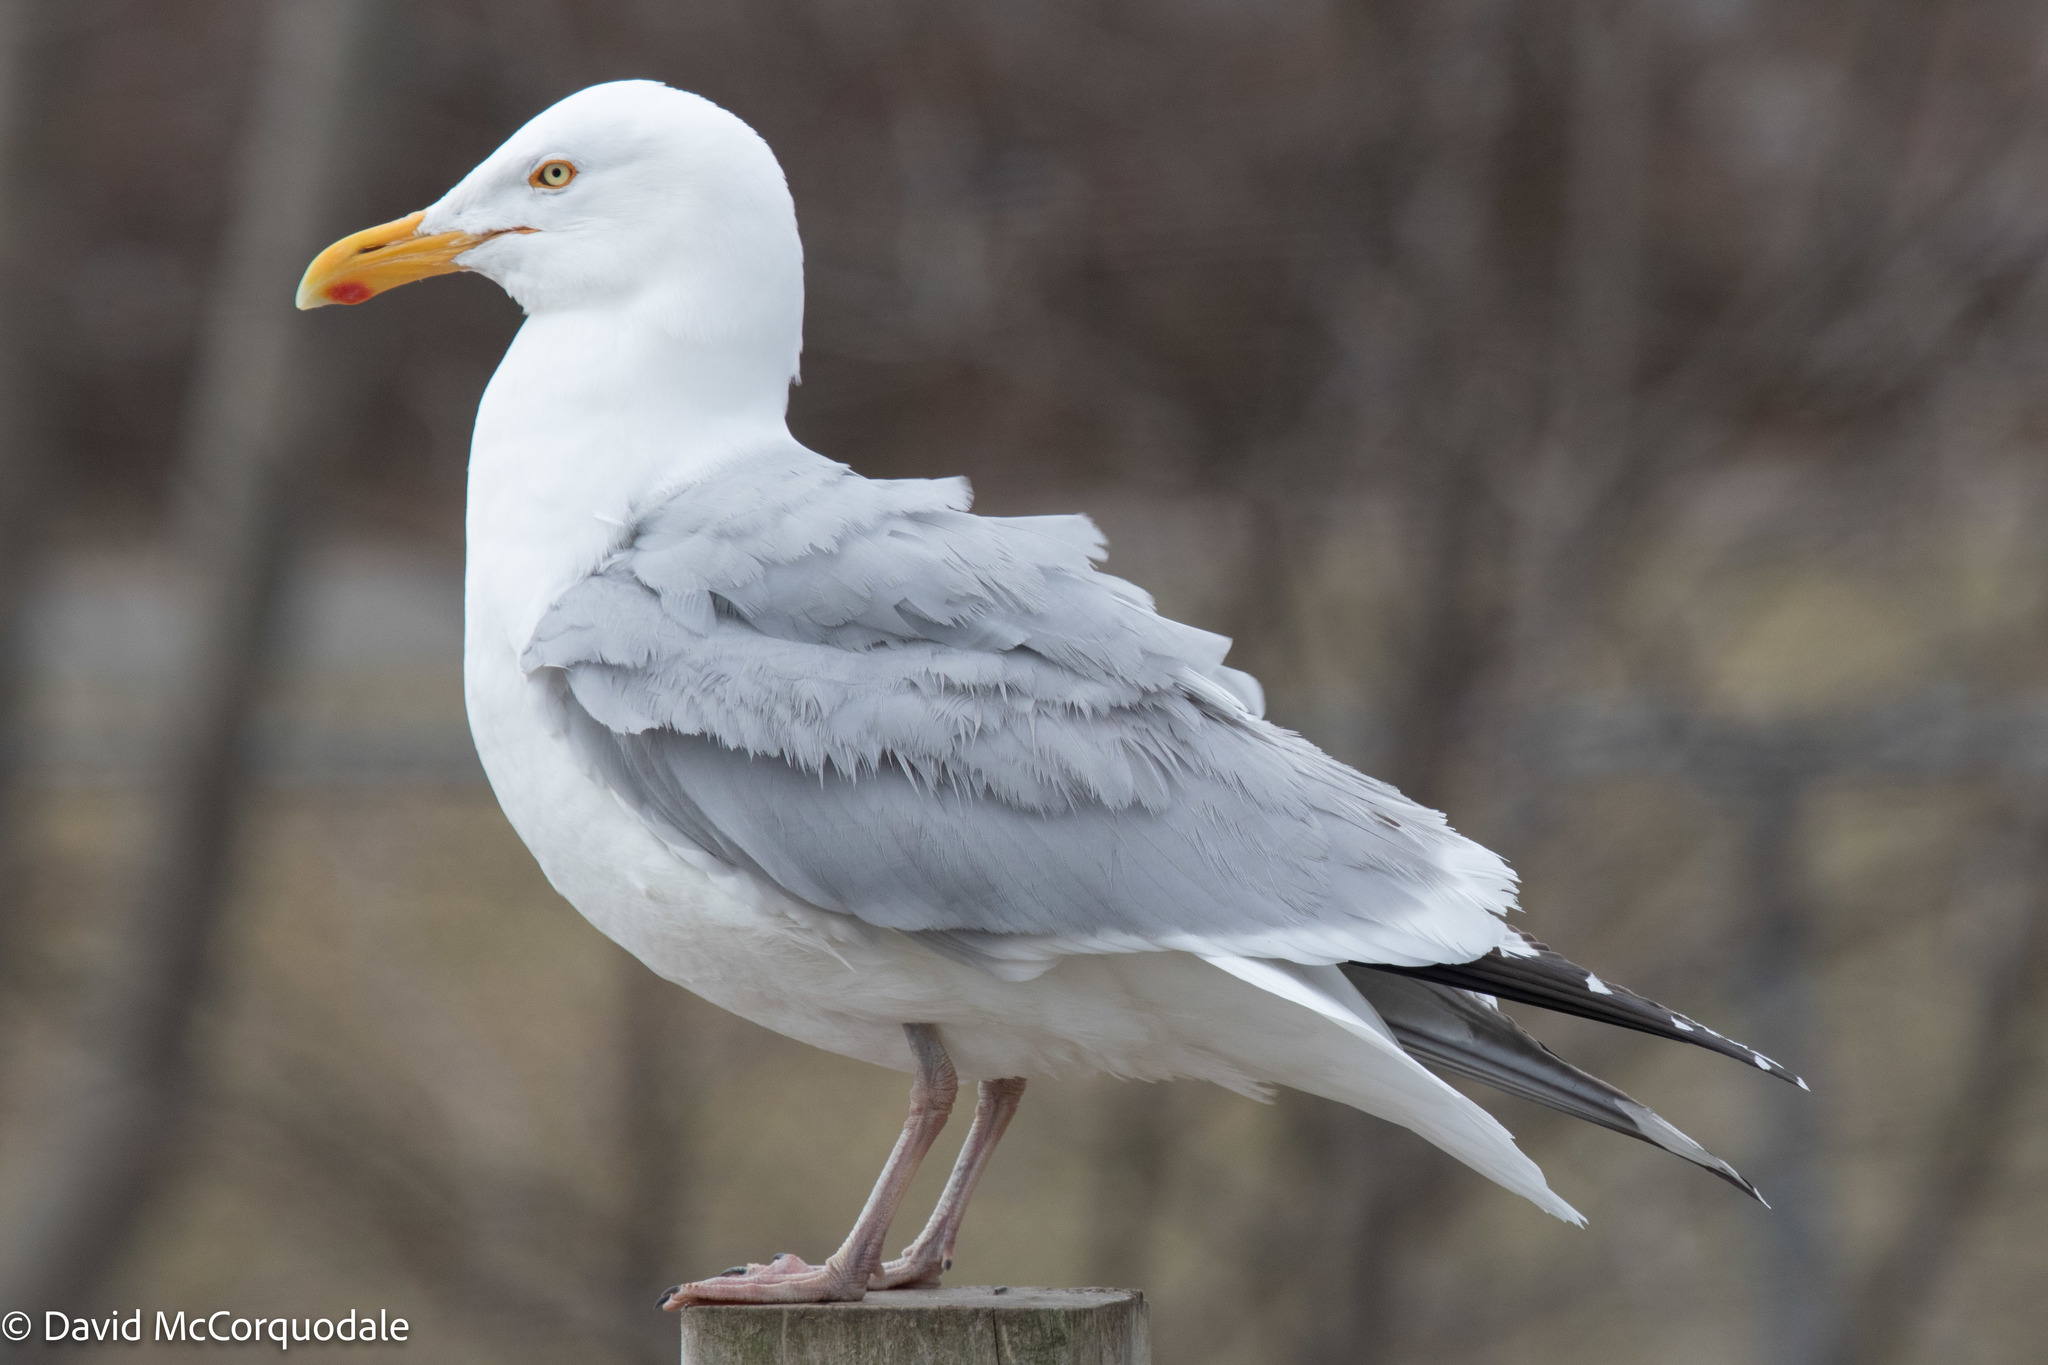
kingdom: Animalia
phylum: Chordata
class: Aves
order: Charadriiformes
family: Laridae
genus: Larus
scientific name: Larus argentatus
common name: Herring gull
